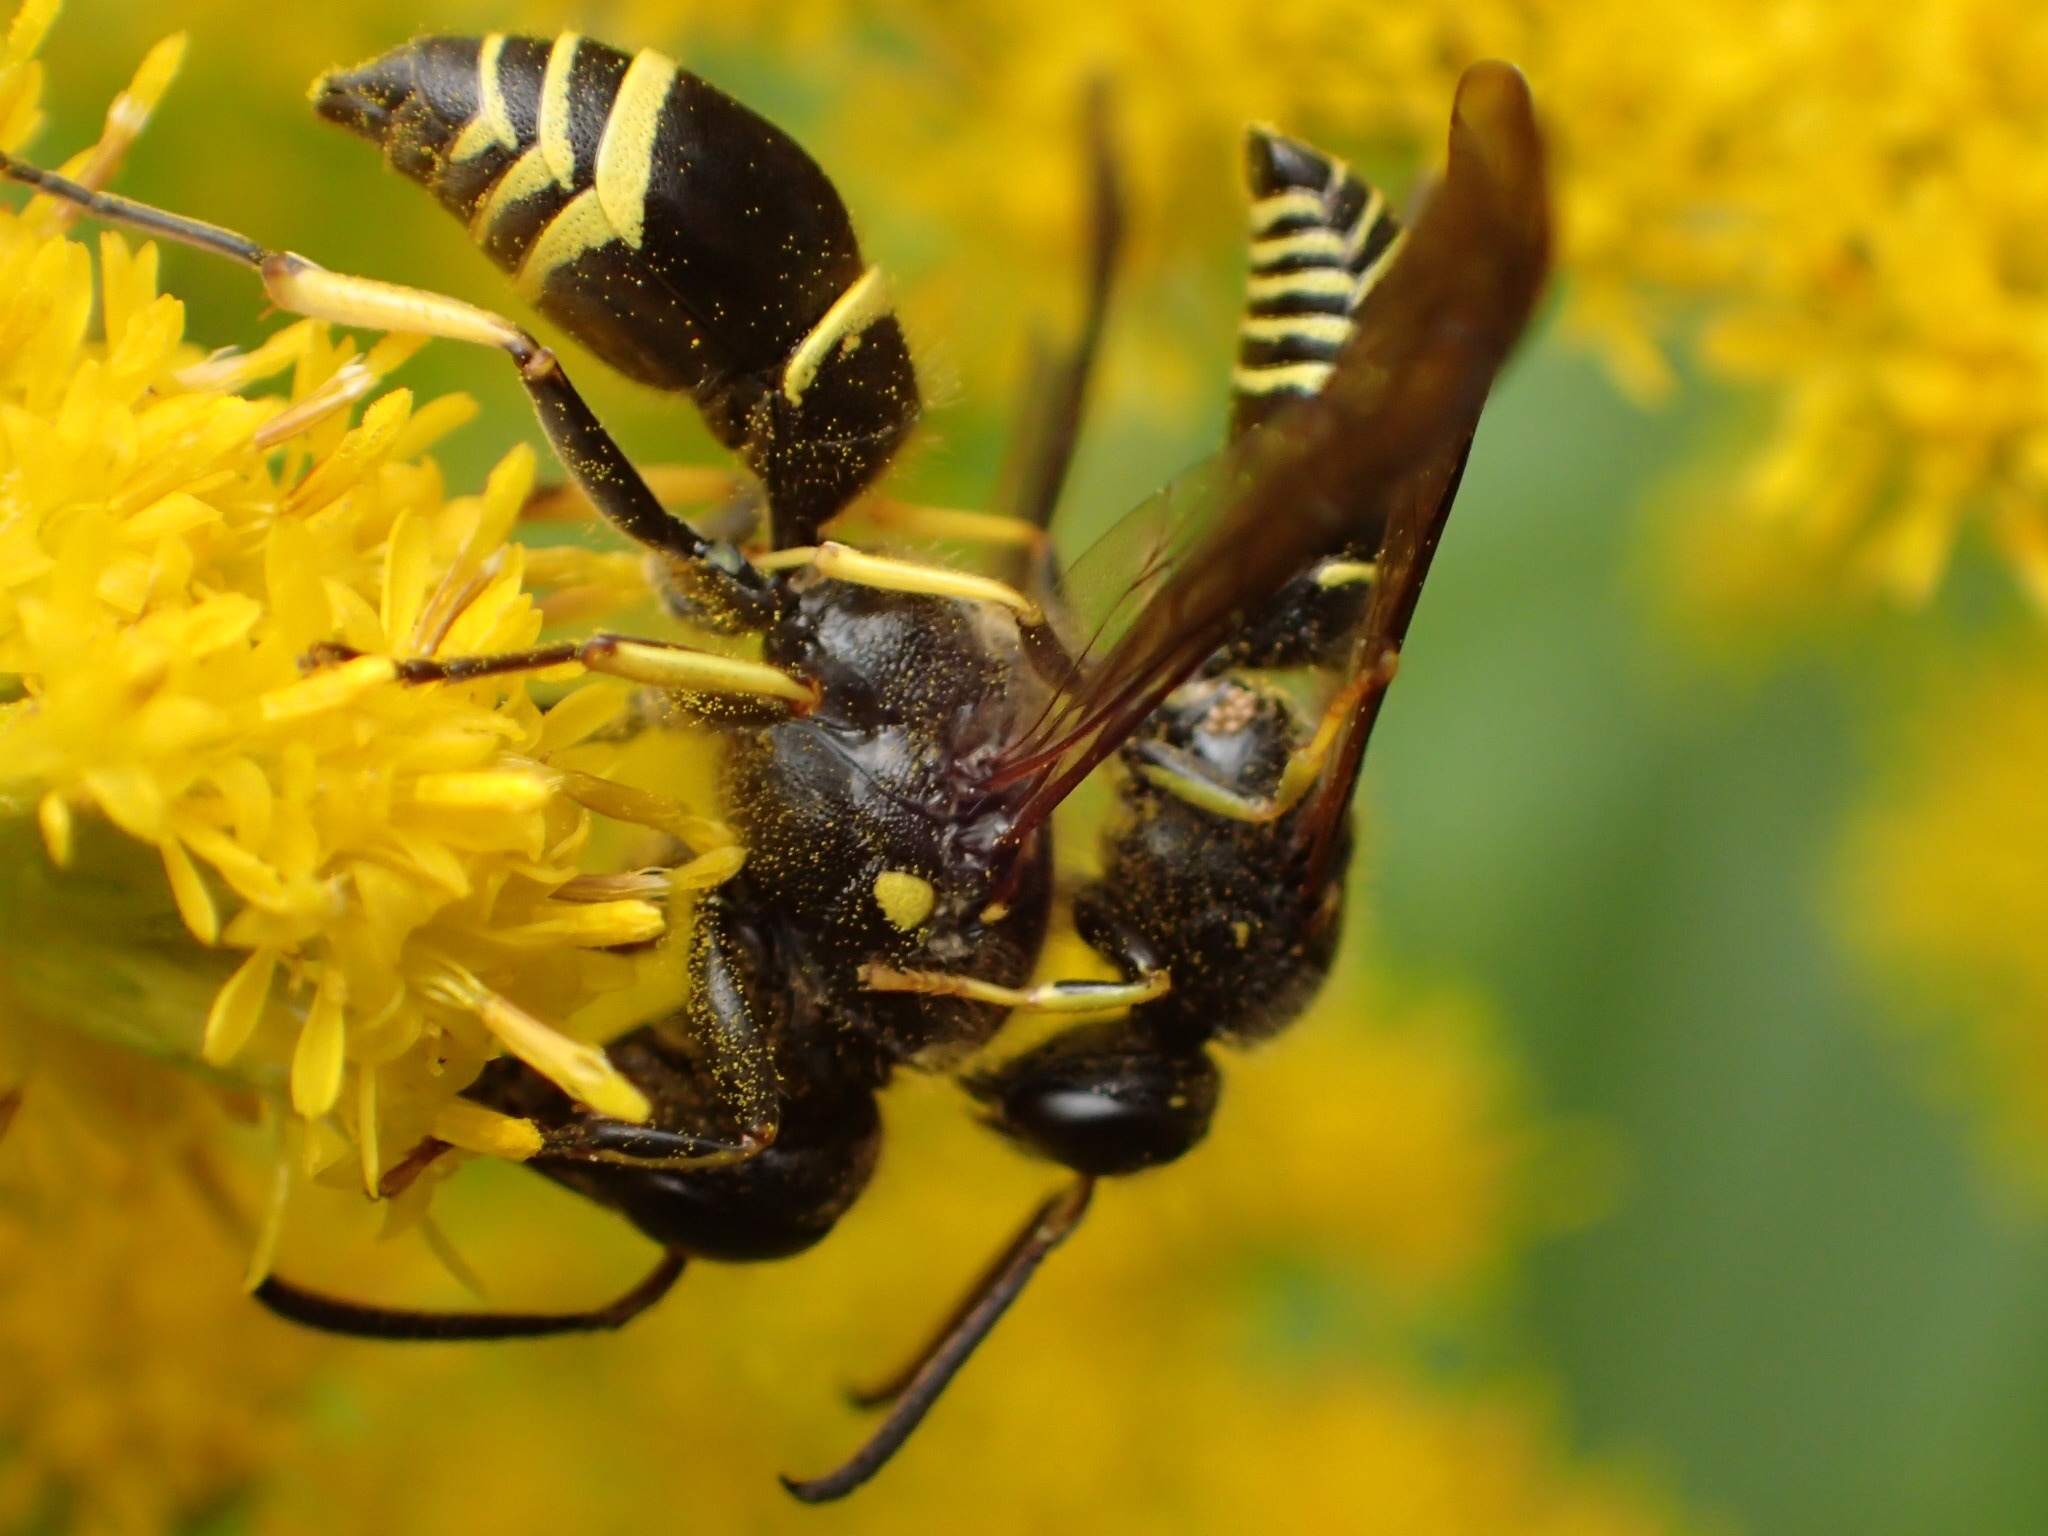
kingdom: Animalia
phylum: Arthropoda
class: Insecta
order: Hymenoptera
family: Vespidae
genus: Ancistrocerus
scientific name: Ancistrocerus
